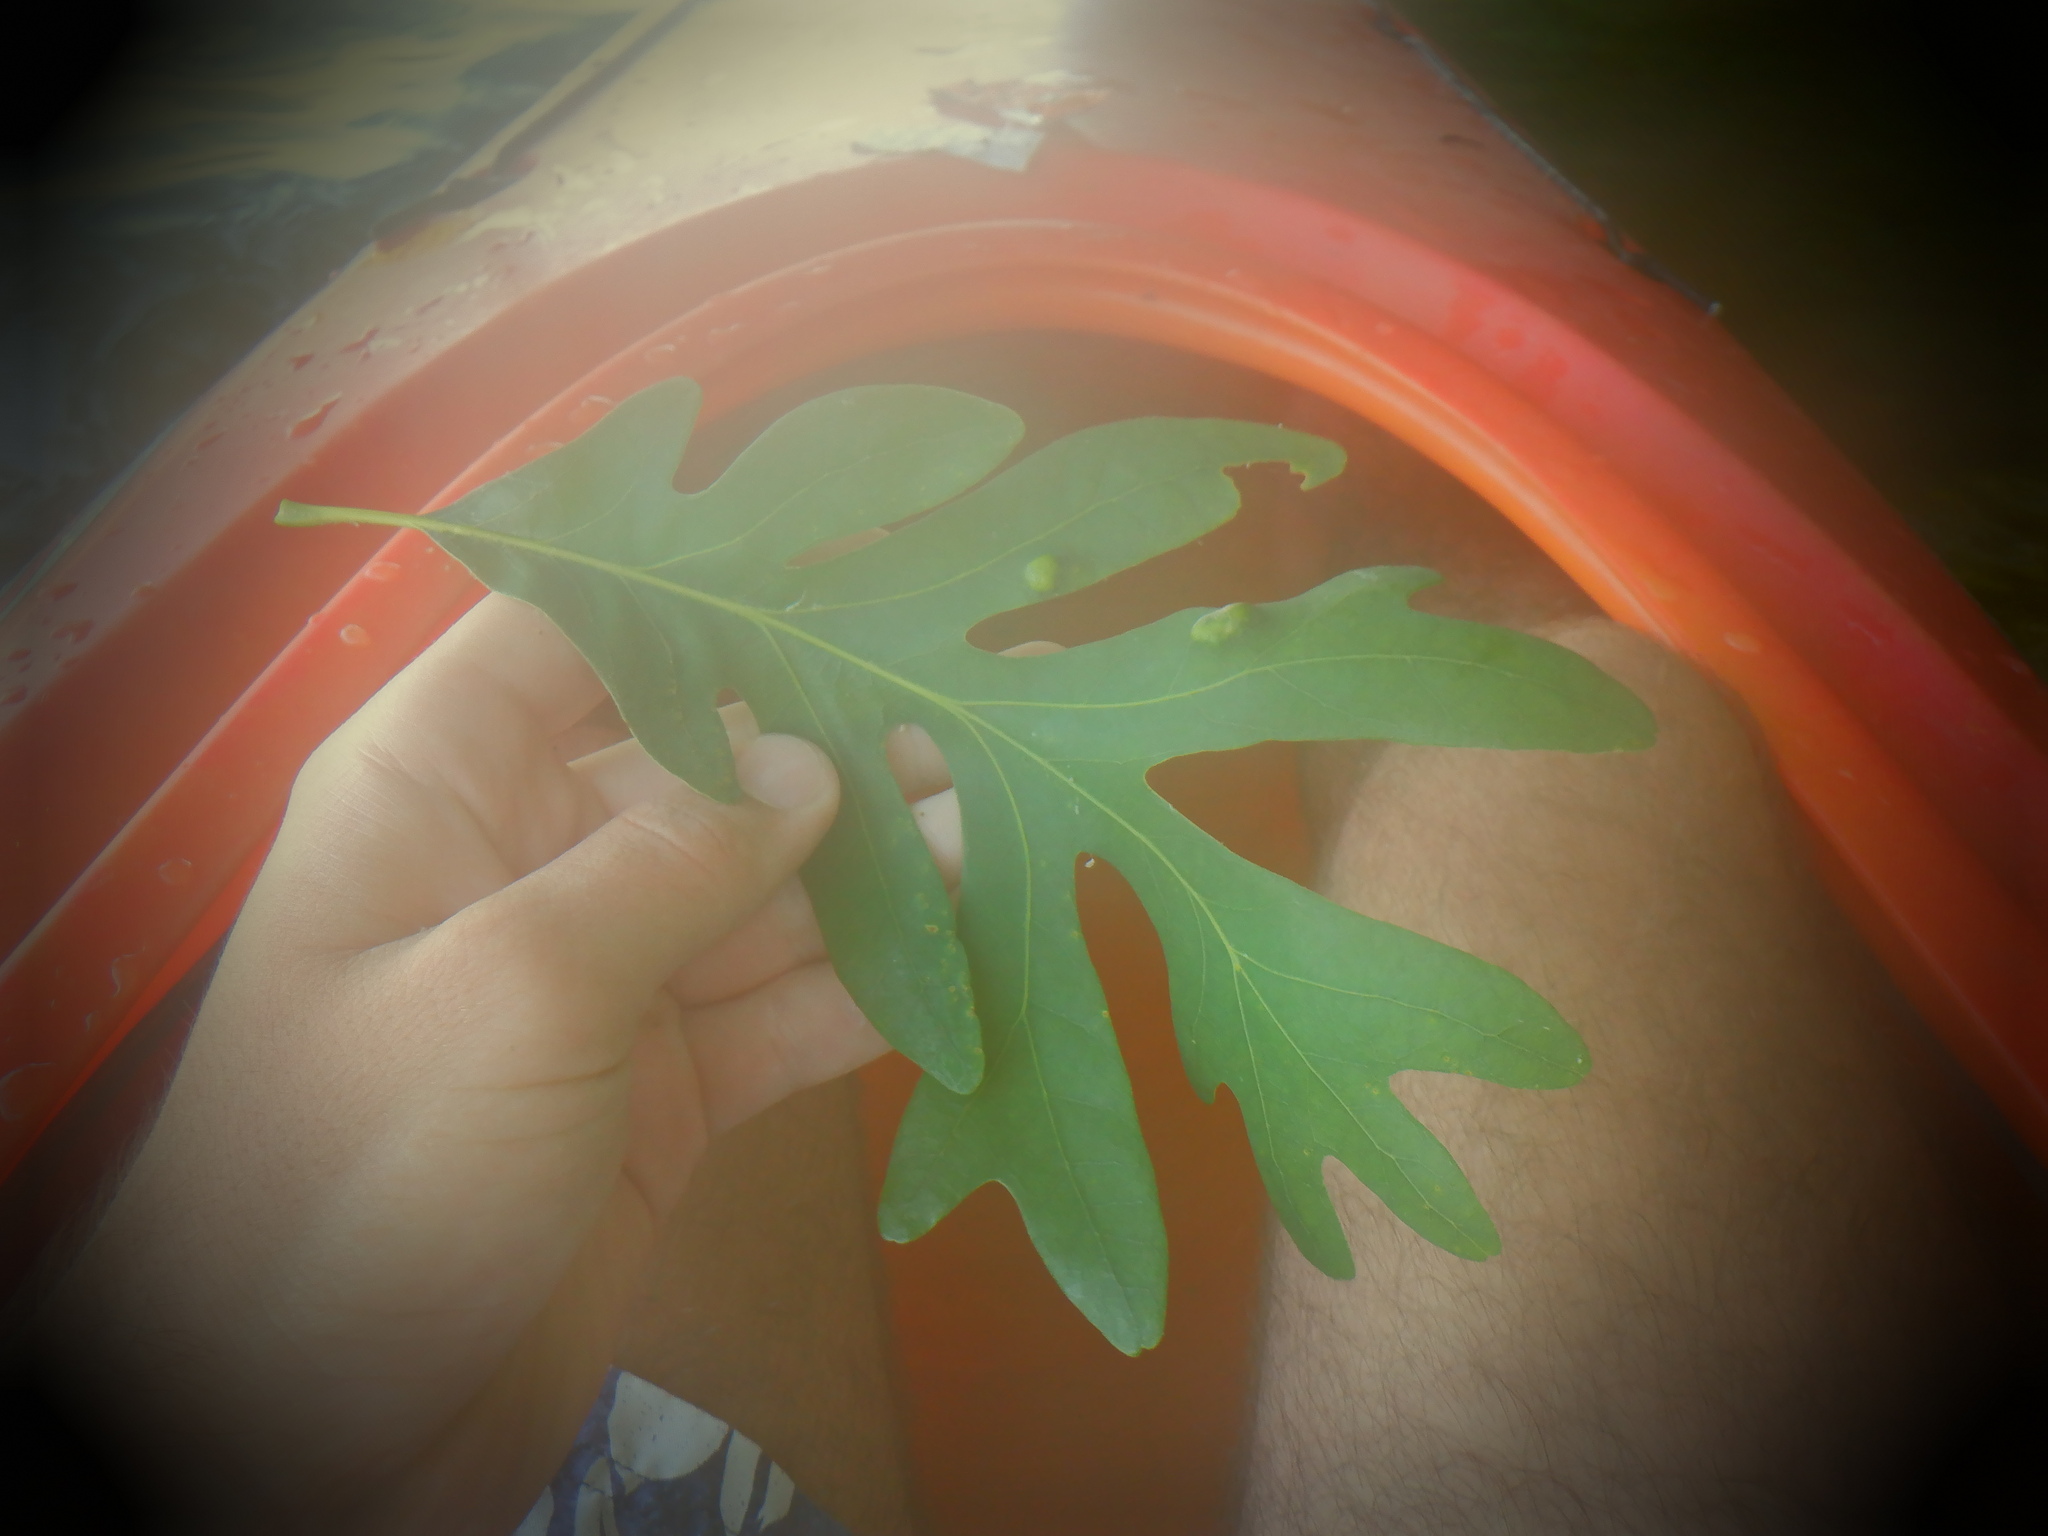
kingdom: Plantae
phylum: Tracheophyta
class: Magnoliopsida
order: Fagales
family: Fagaceae
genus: Quercus
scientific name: Quercus alba
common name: White oak
